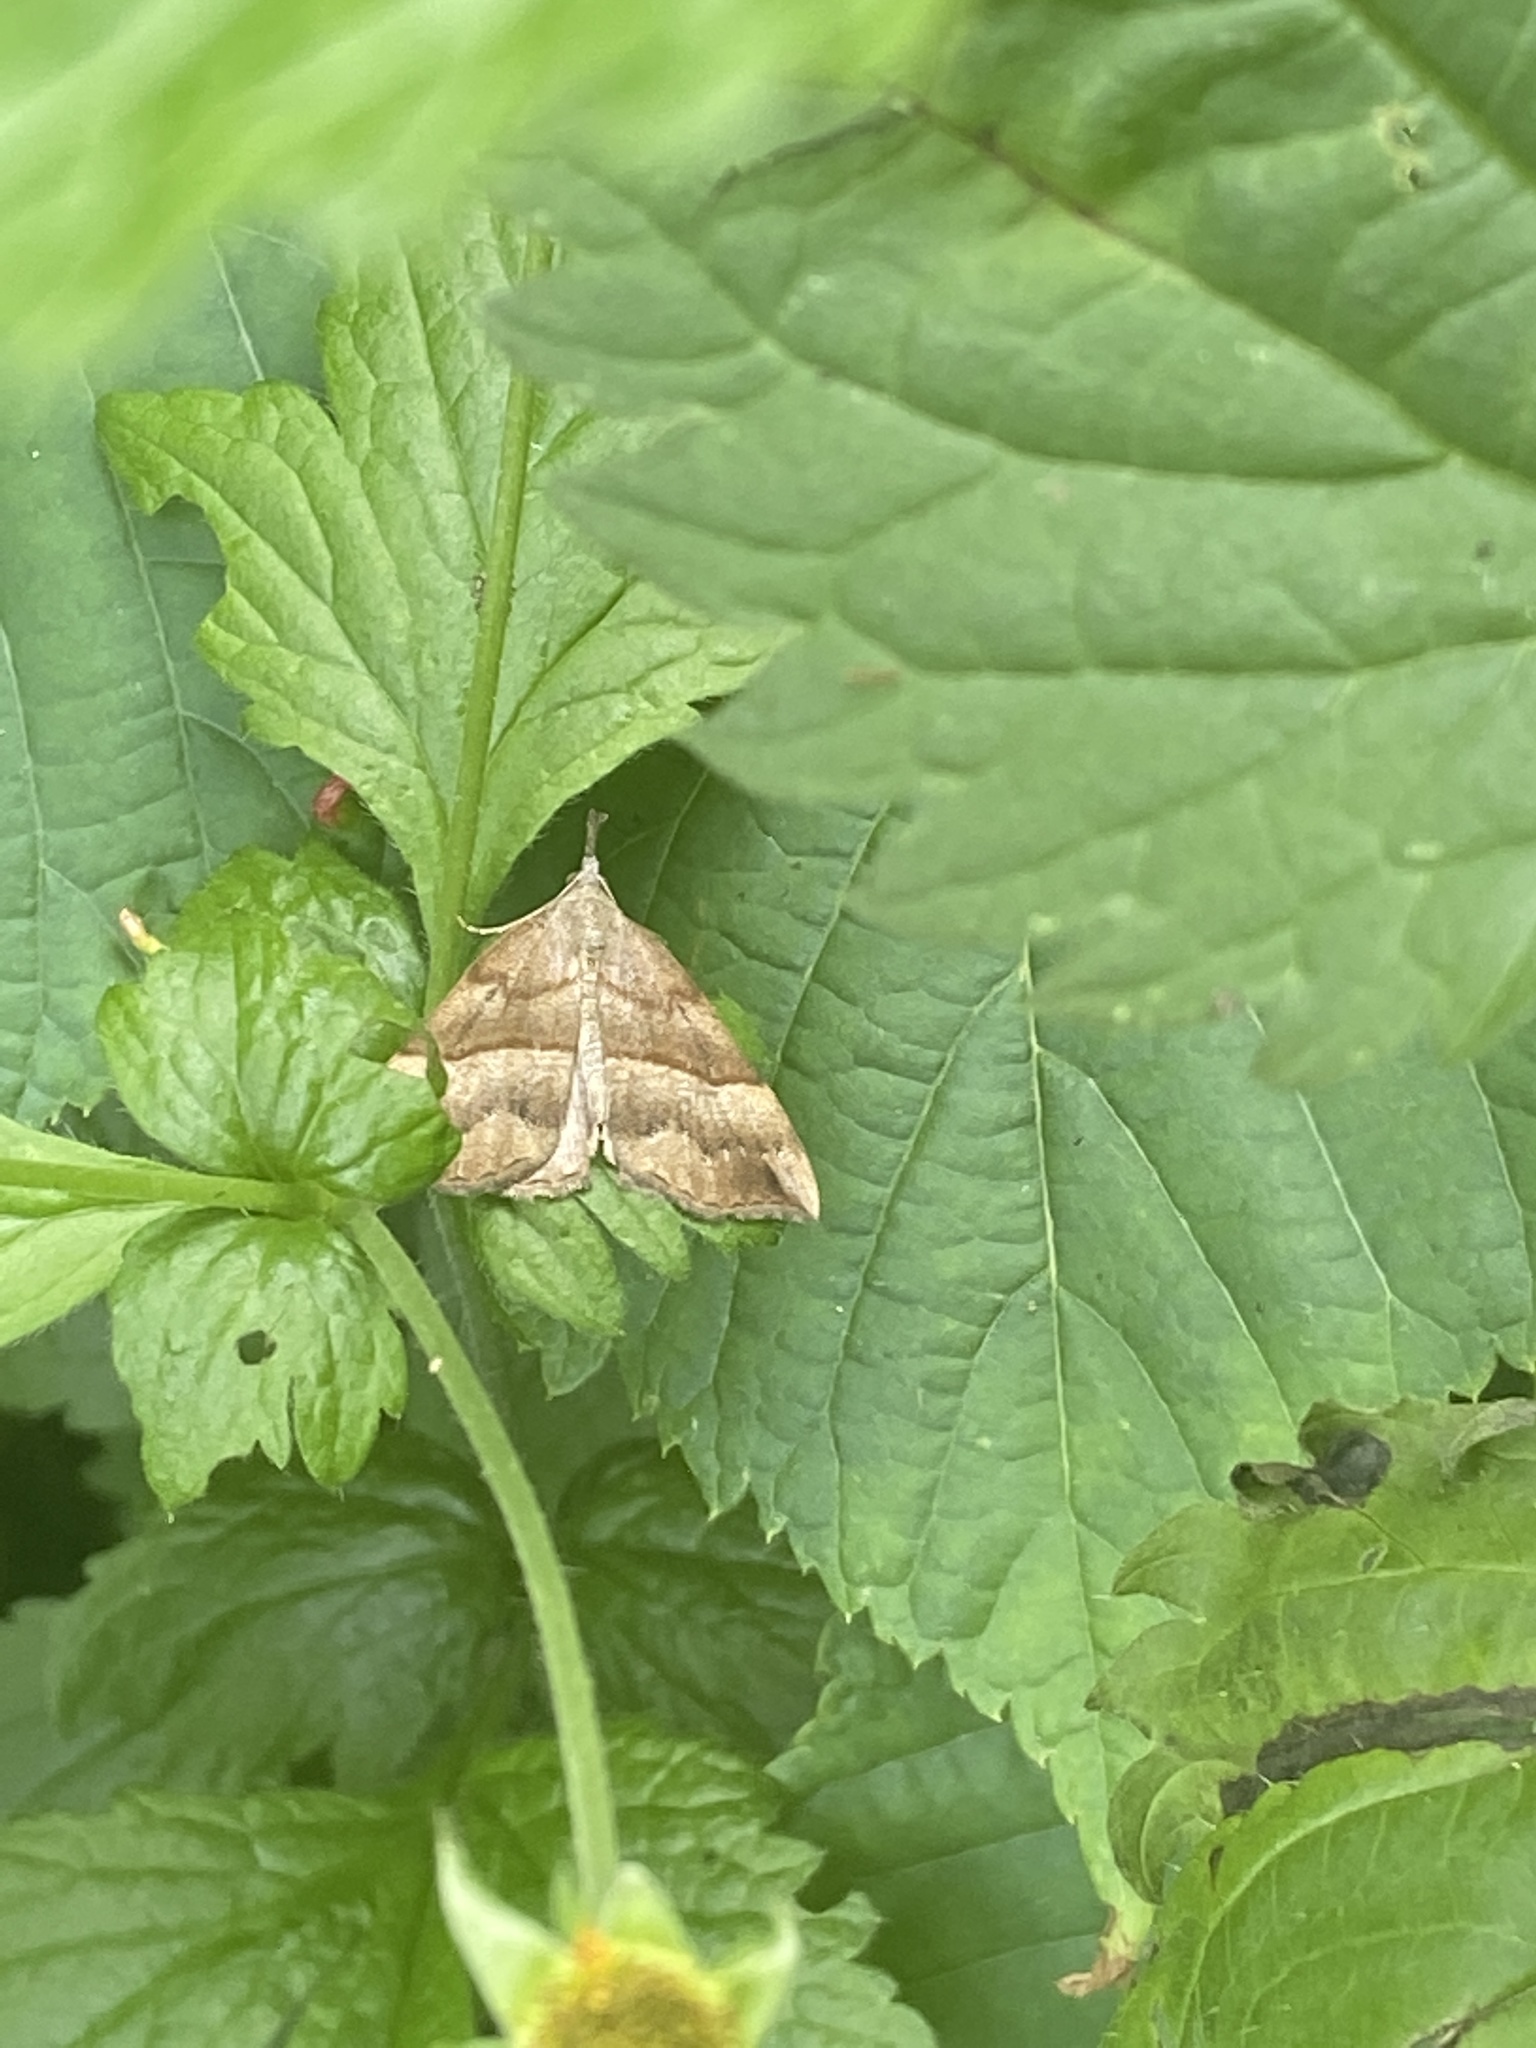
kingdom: Animalia
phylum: Arthropoda
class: Insecta
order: Lepidoptera
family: Erebidae
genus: Hypena
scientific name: Hypena proboscidalis
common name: Snout
